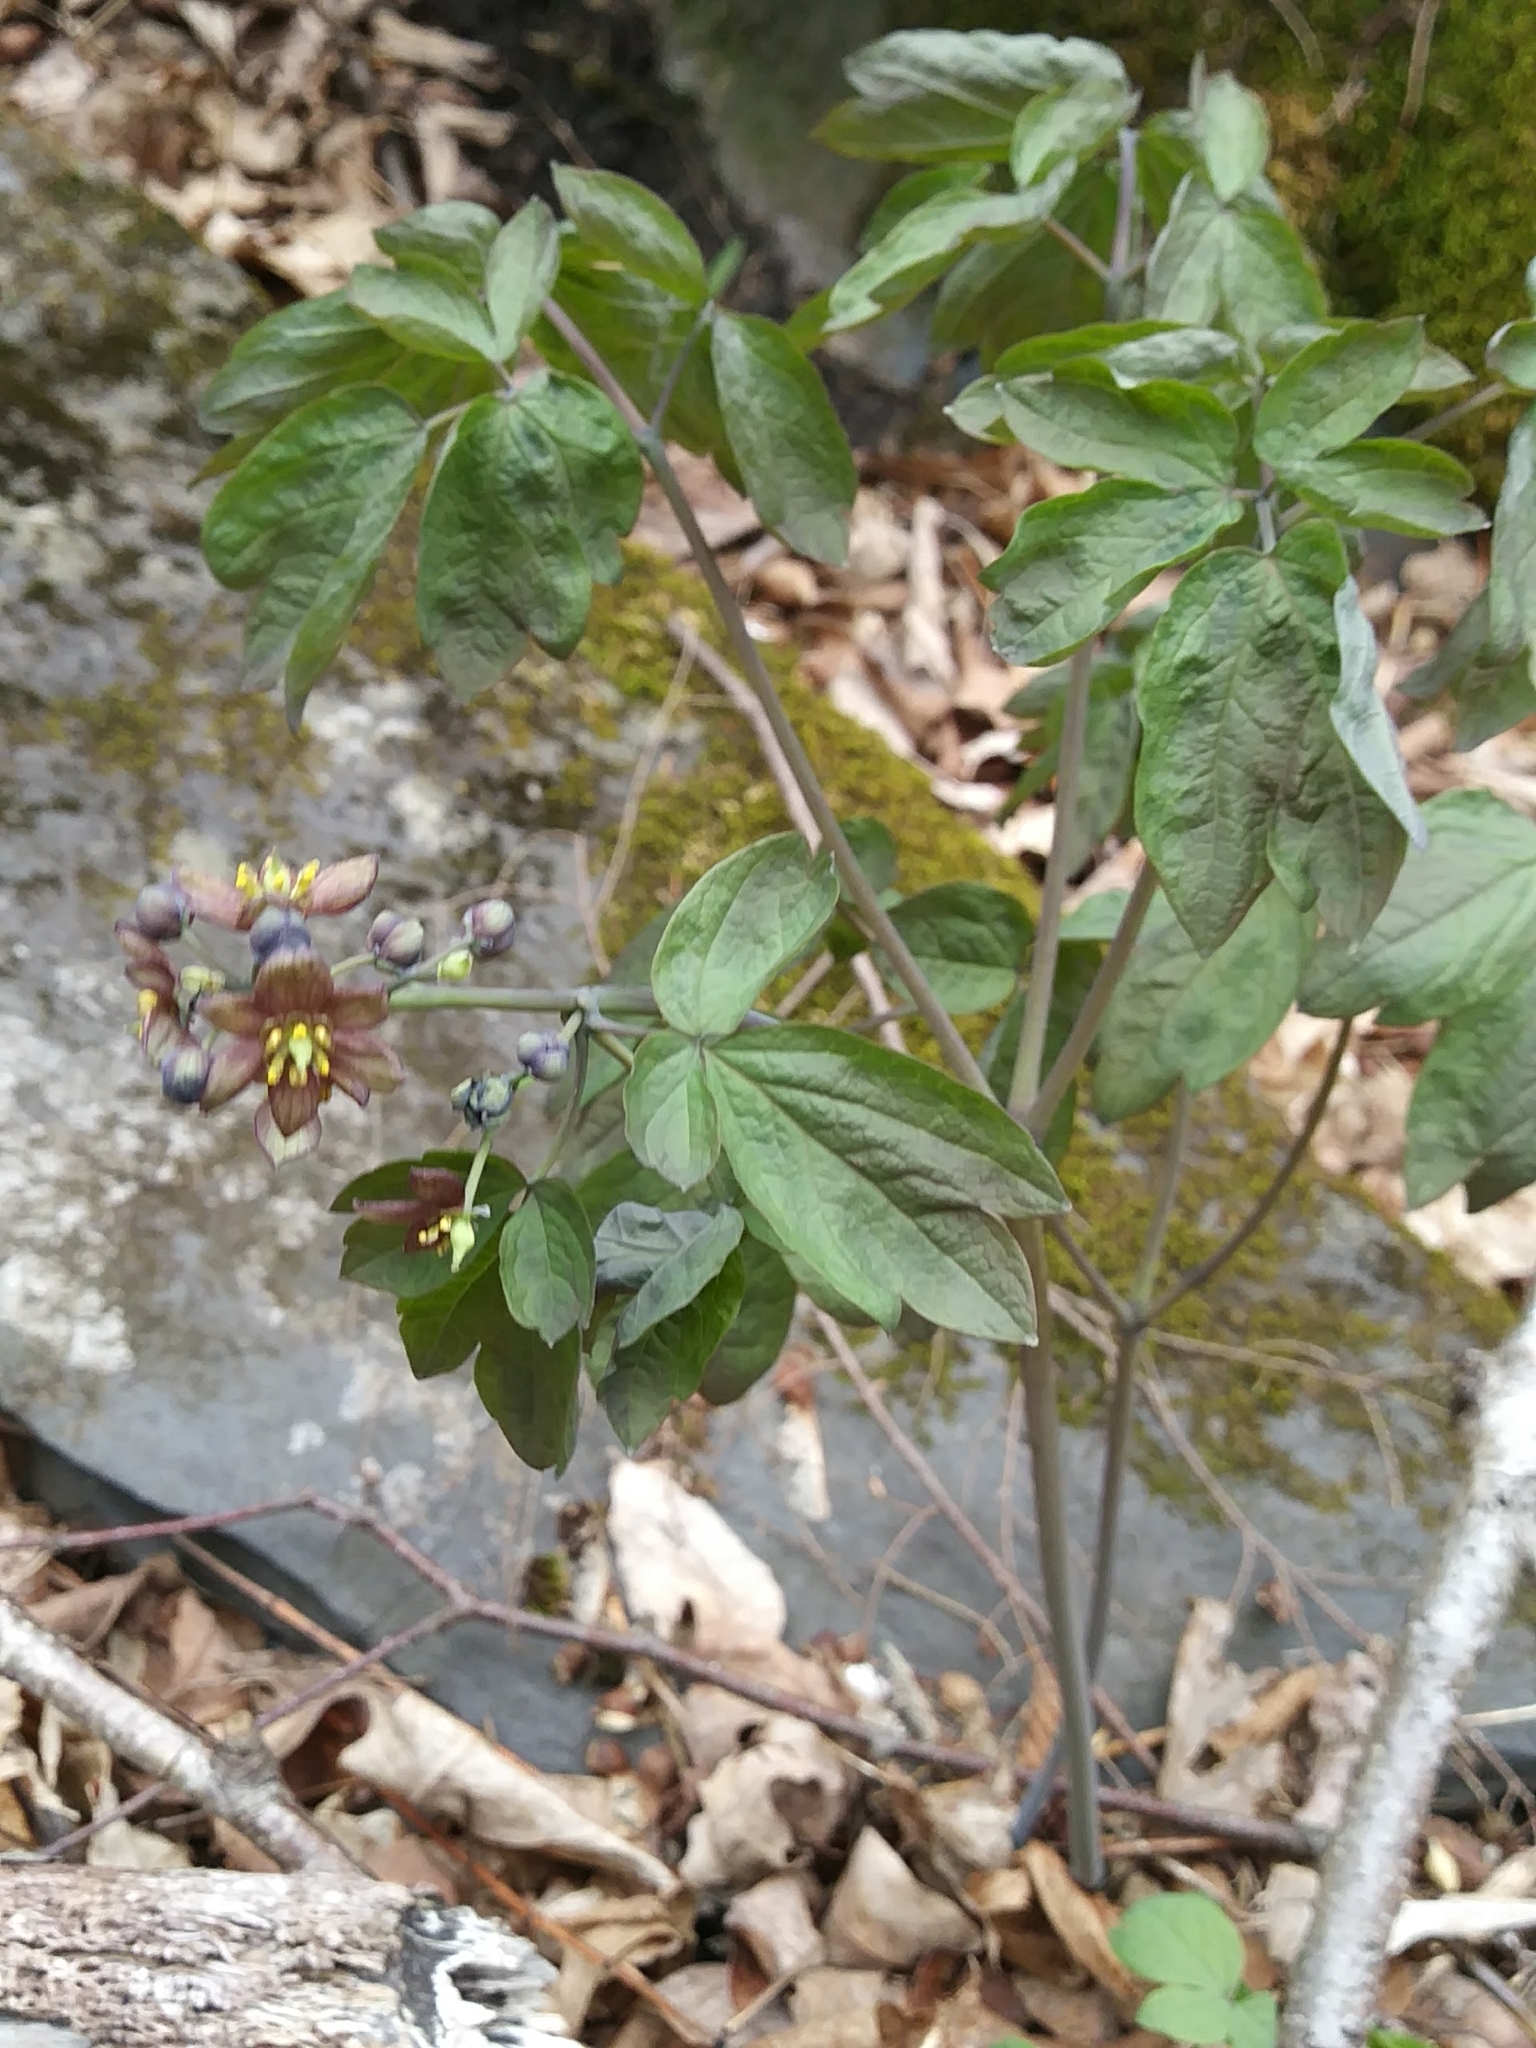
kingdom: Plantae
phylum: Tracheophyta
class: Magnoliopsida
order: Ranunculales
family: Berberidaceae
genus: Caulophyllum
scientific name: Caulophyllum giganteum
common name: Blue cohosh
